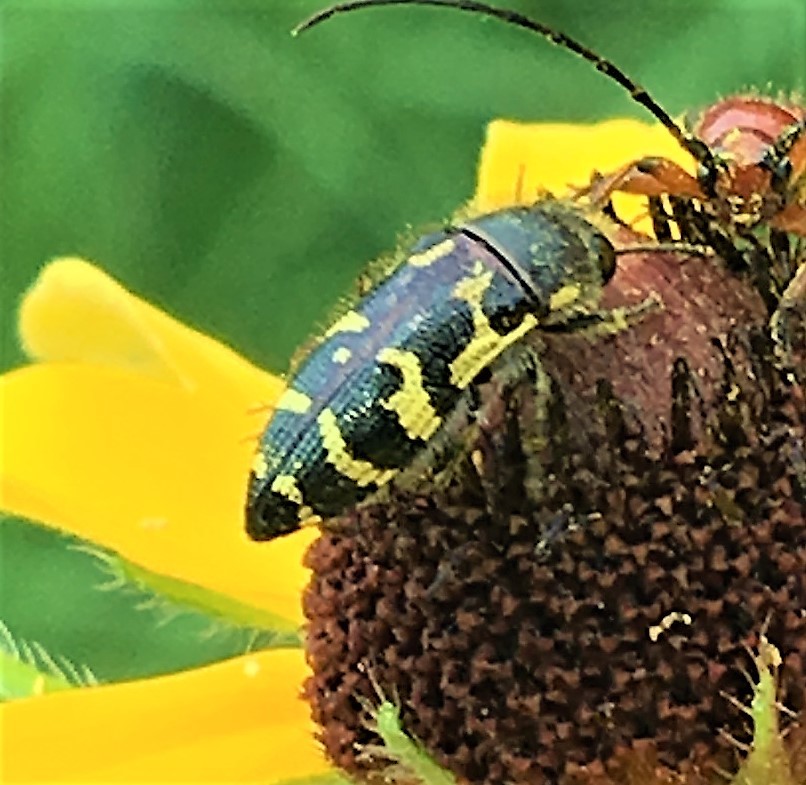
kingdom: Animalia
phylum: Arthropoda
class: Insecta
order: Coleoptera
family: Buprestidae
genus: Acmaeodera
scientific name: Acmaeodera mixta
